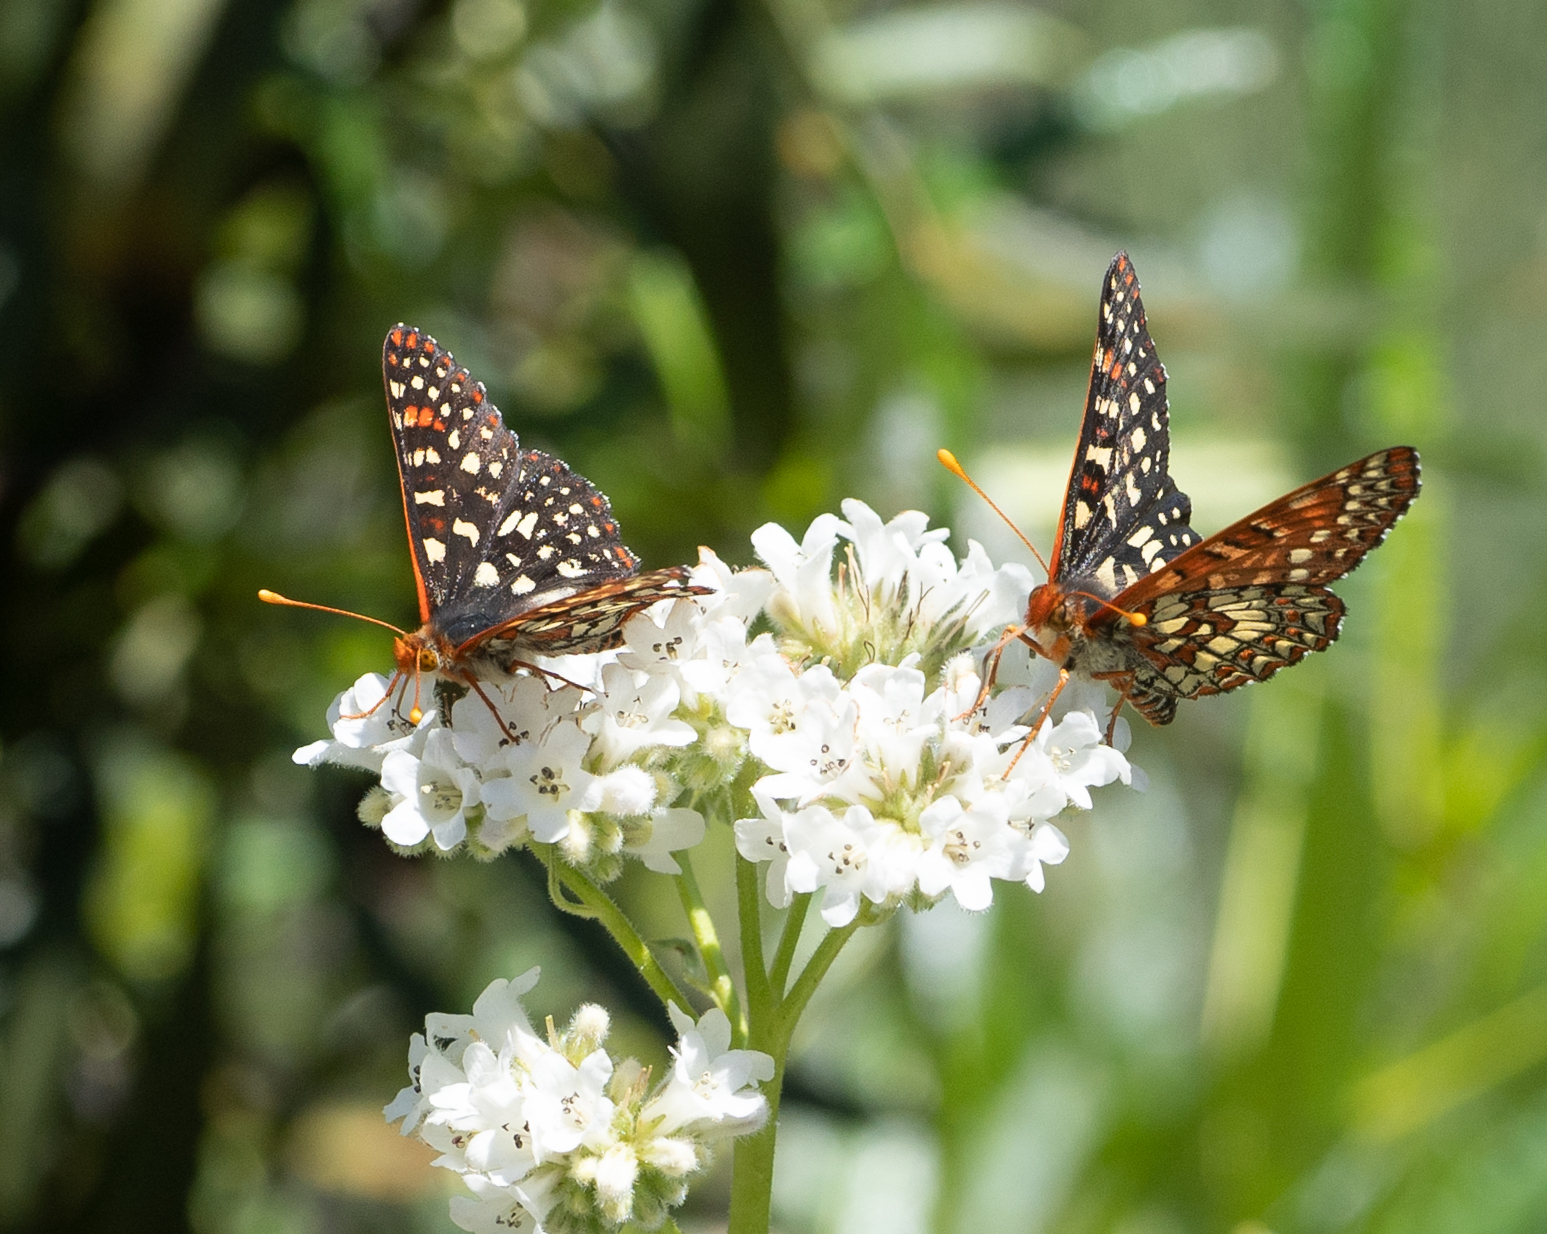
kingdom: Animalia
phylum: Arthropoda
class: Insecta
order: Lepidoptera
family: Nymphalidae
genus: Occidryas
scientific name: Occidryas chalcedona
